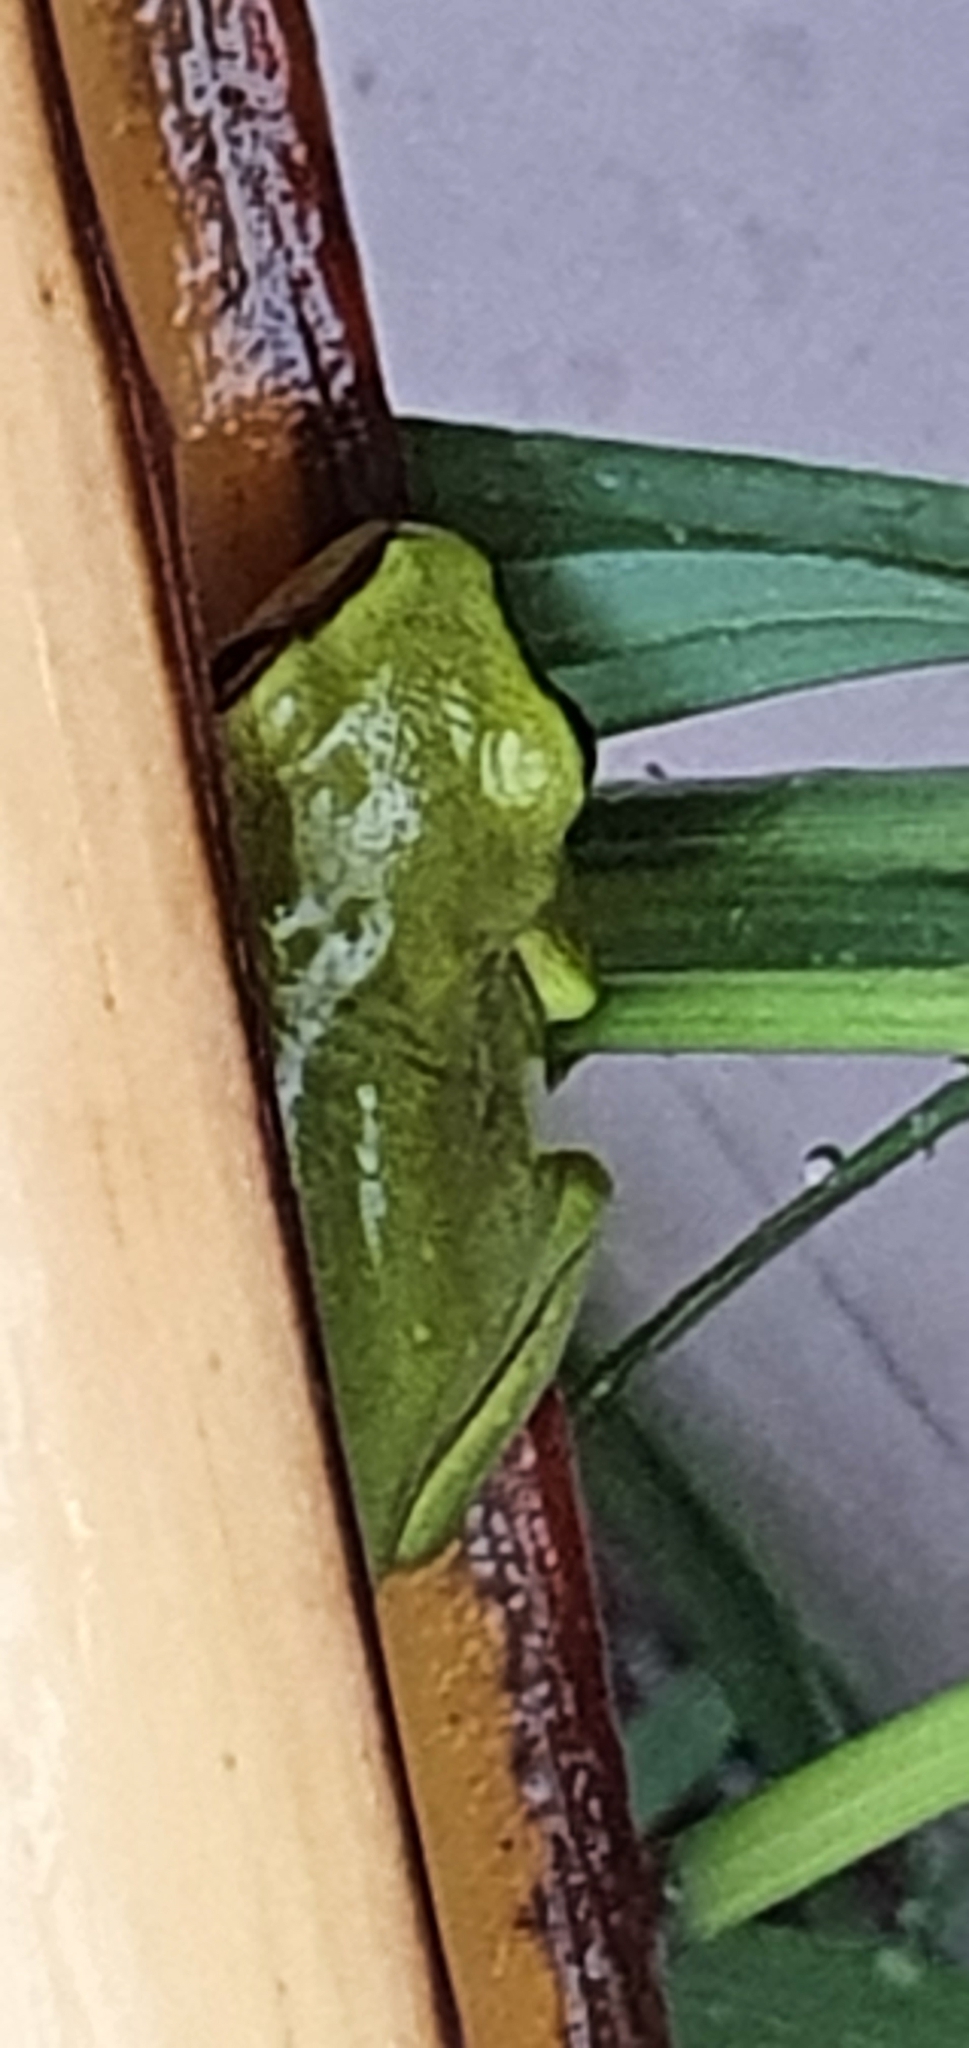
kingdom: Animalia
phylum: Chordata
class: Amphibia
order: Anura
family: Pelodryadidae
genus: Ranoidea
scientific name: Ranoidea caerulea
